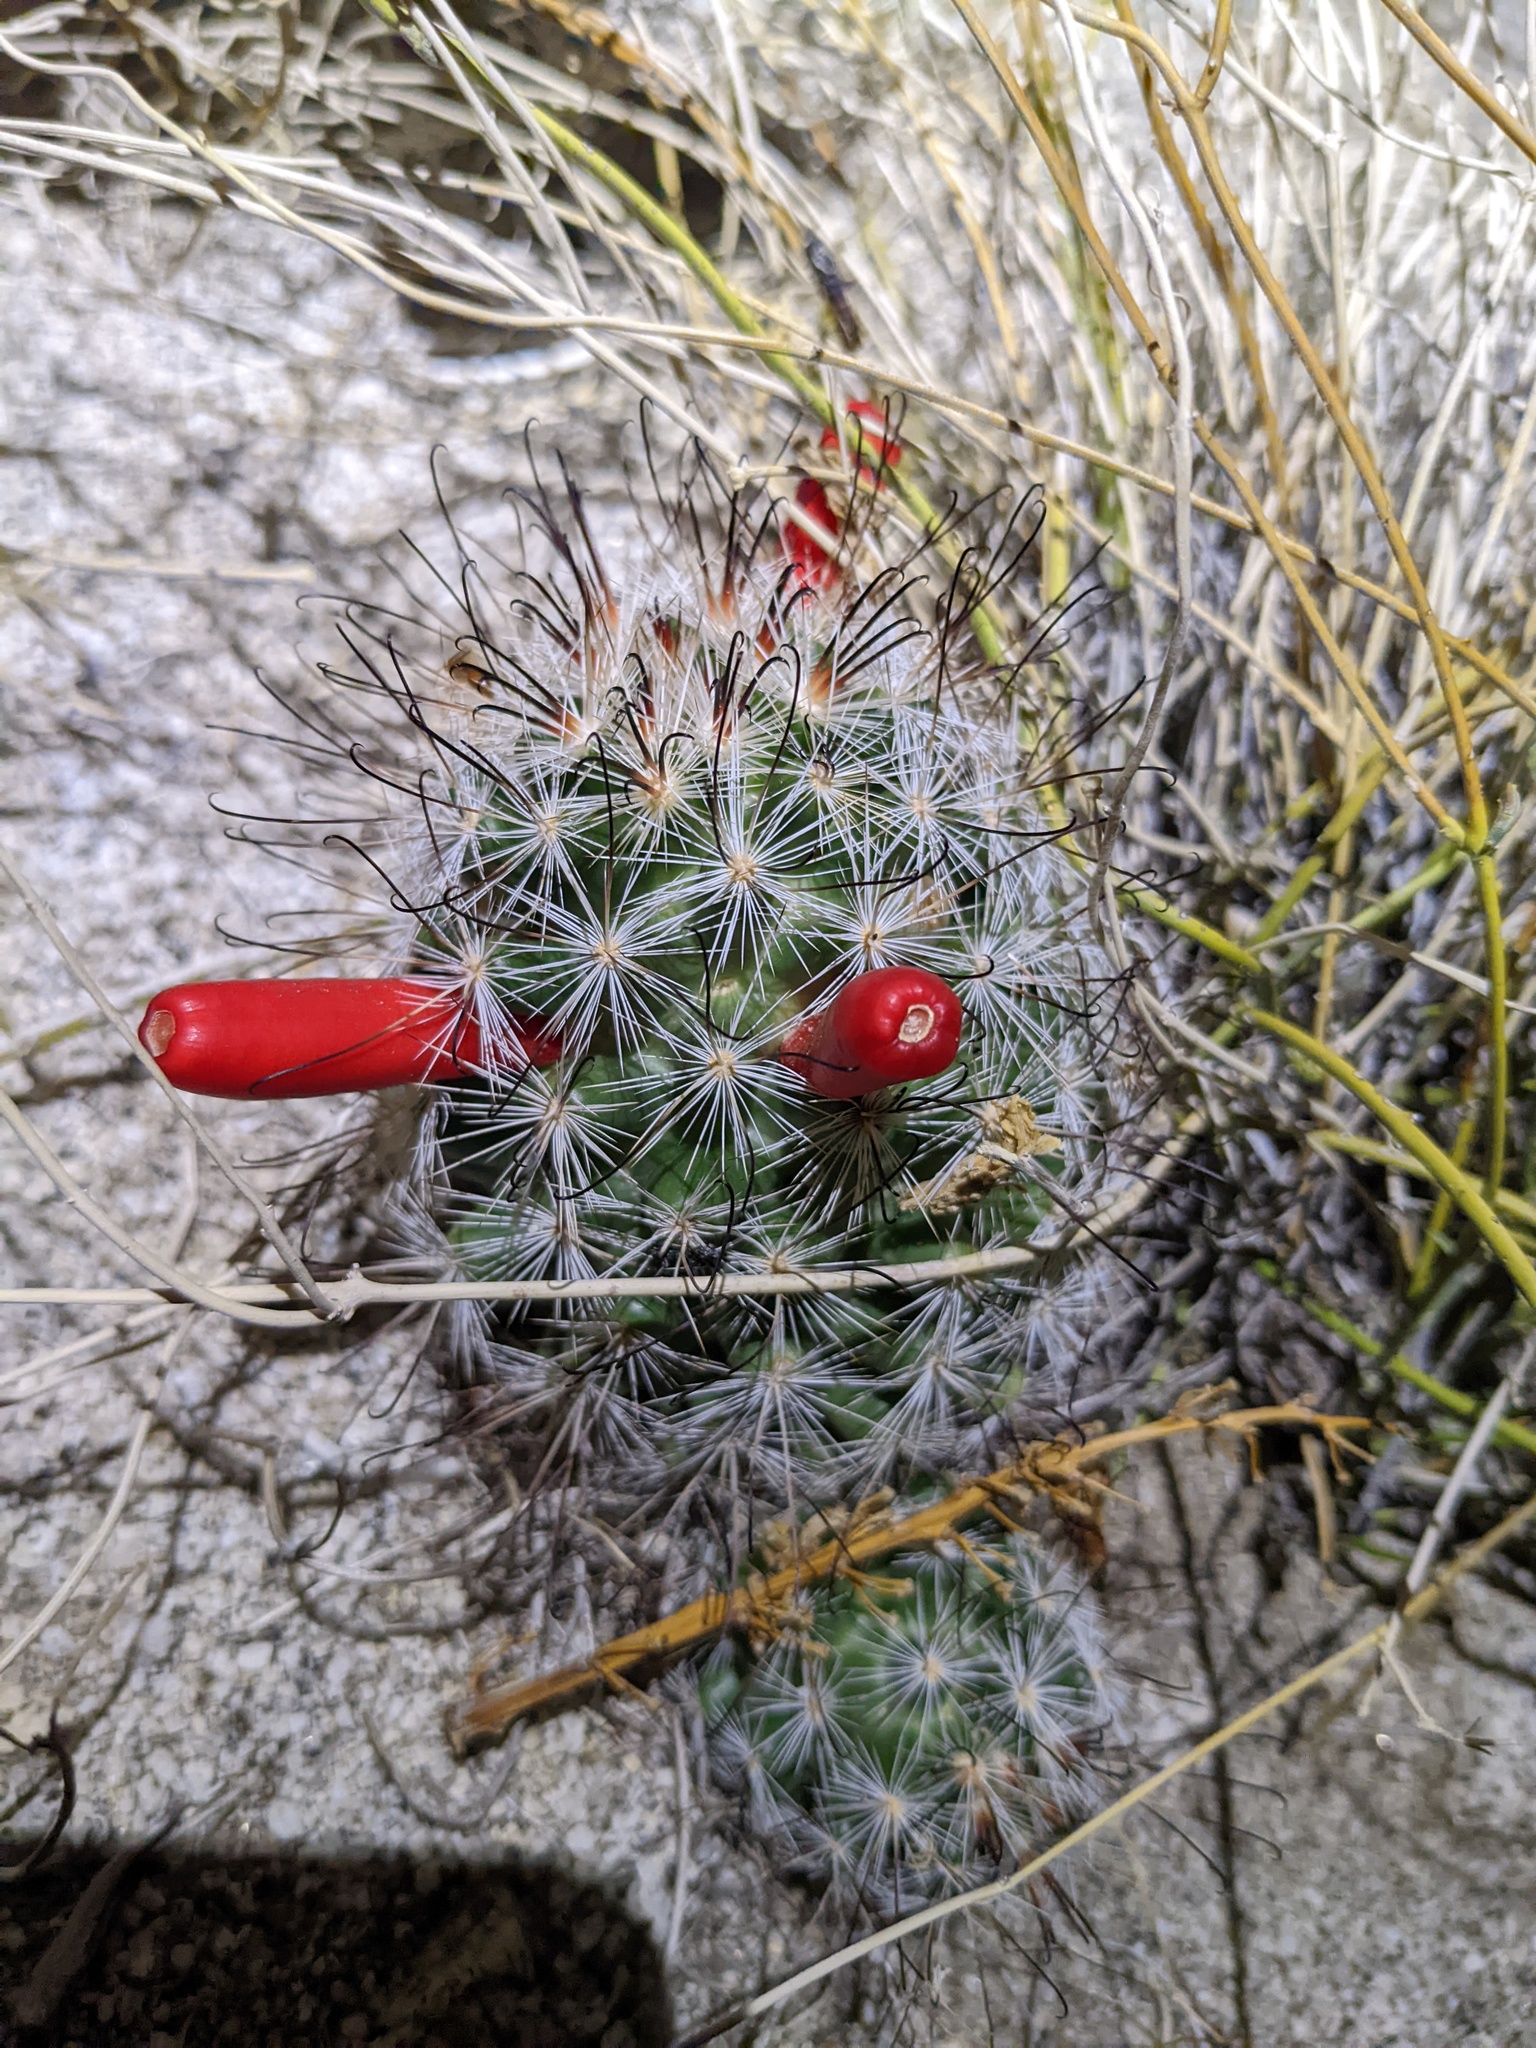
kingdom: Plantae
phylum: Tracheophyta
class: Magnoliopsida
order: Caryophyllales
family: Cactaceae
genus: Cochemiea
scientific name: Cochemiea tetrancistra
